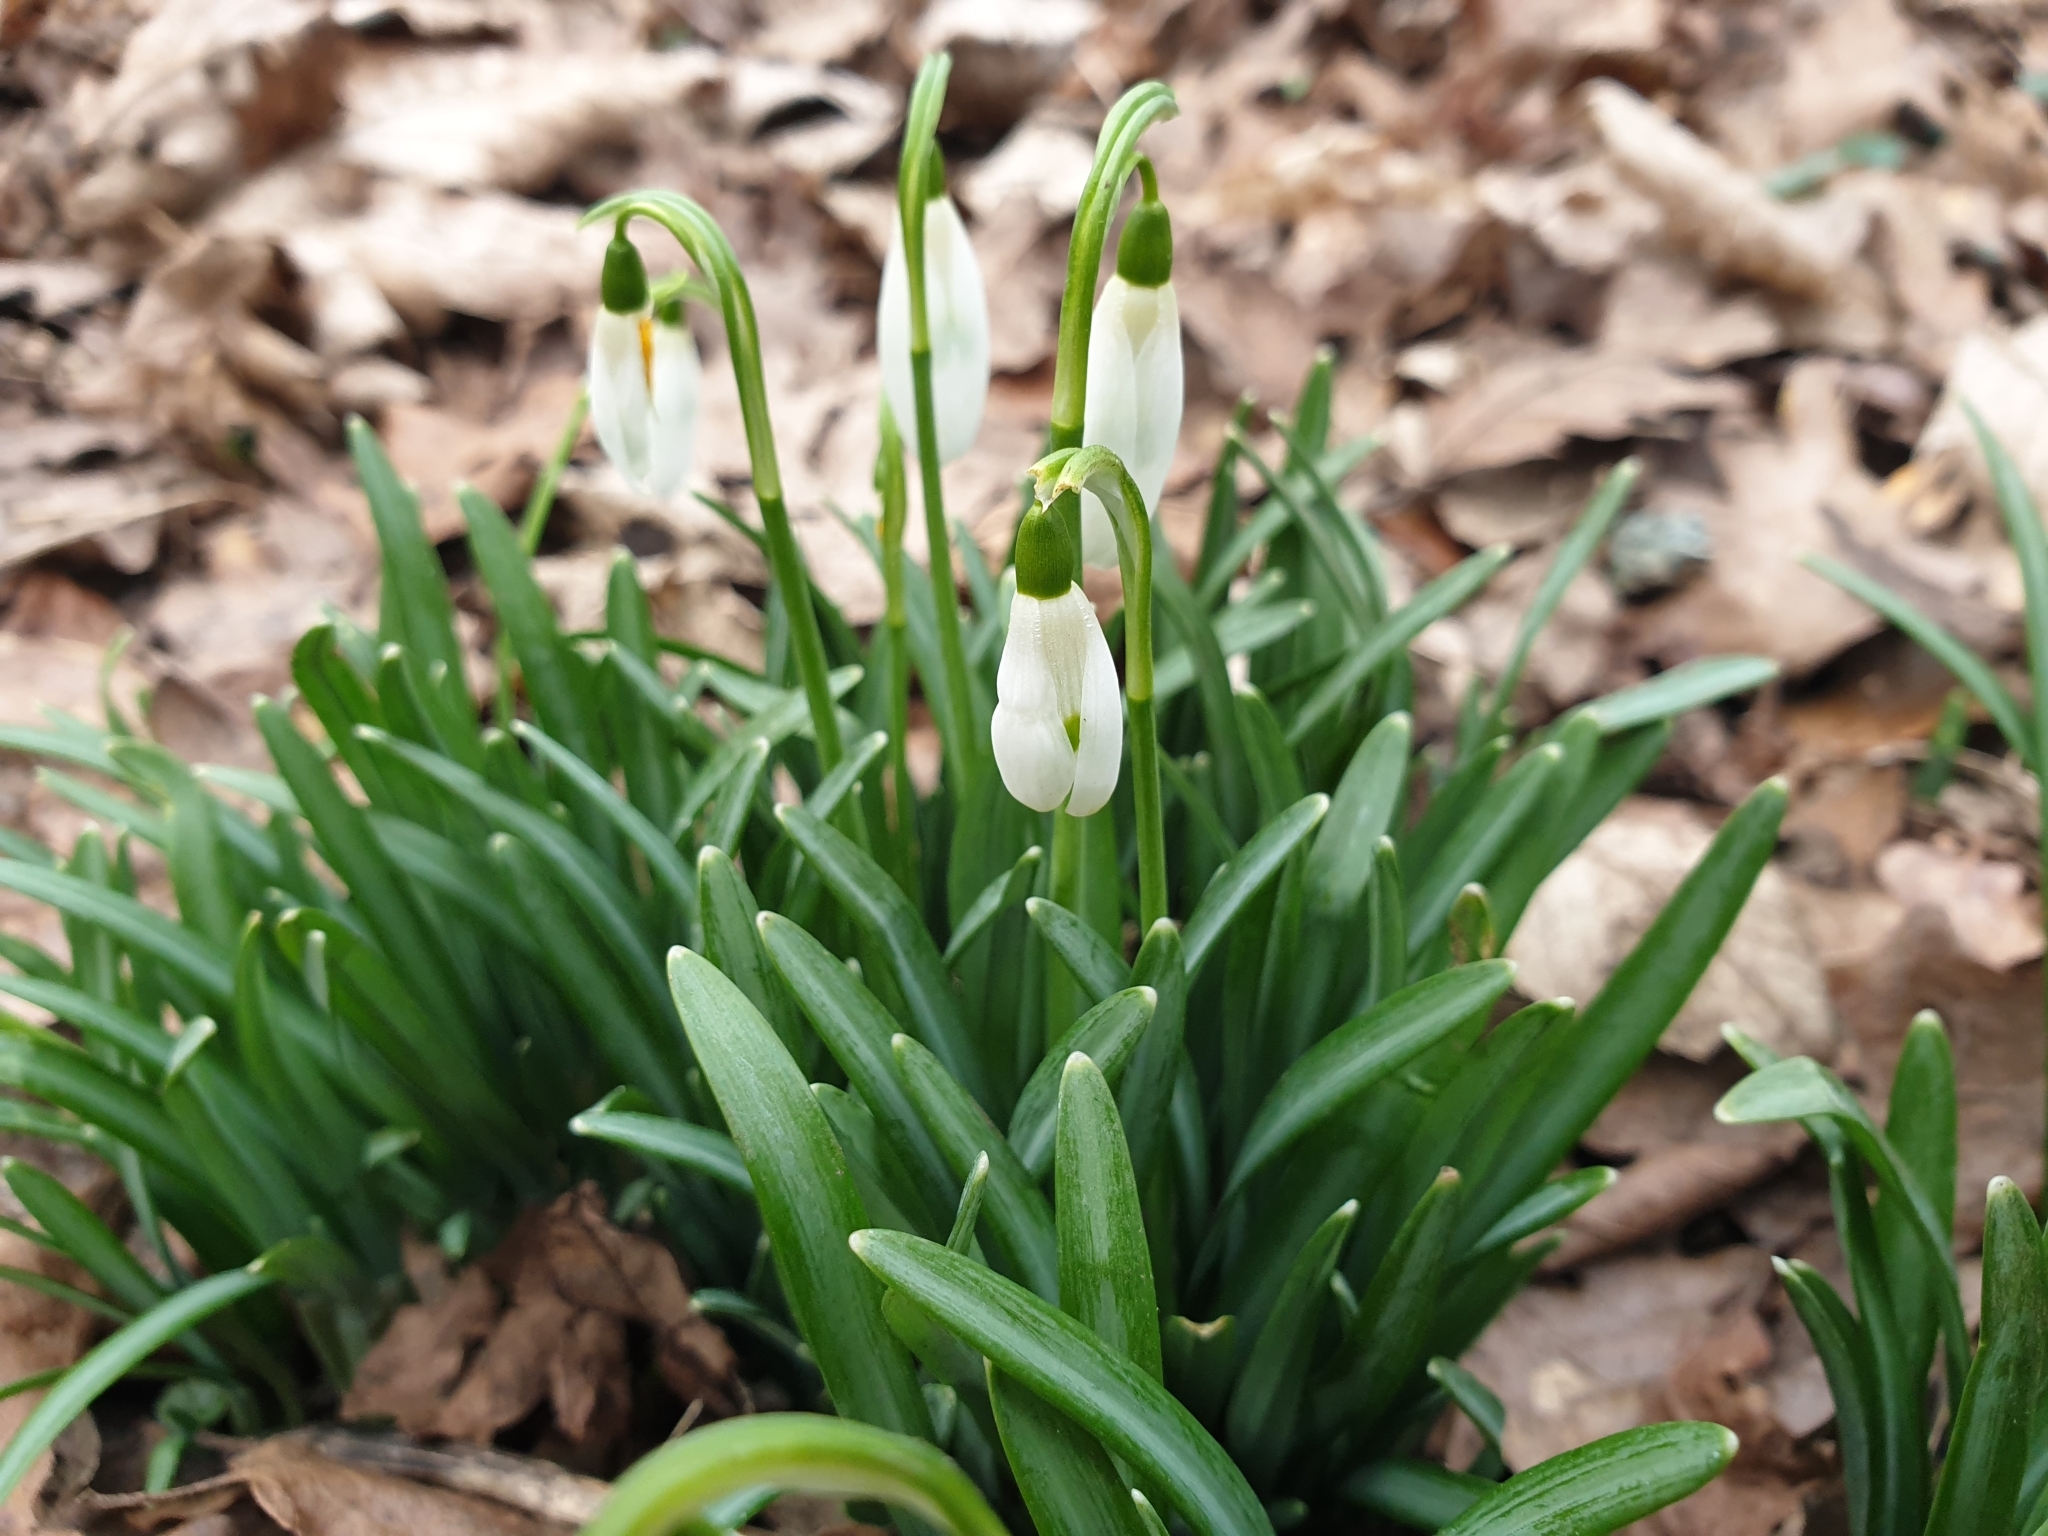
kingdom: Plantae
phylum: Tracheophyta
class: Liliopsida
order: Asparagales
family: Amaryllidaceae
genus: Galanthus
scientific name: Galanthus nivalis
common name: Snowdrop
